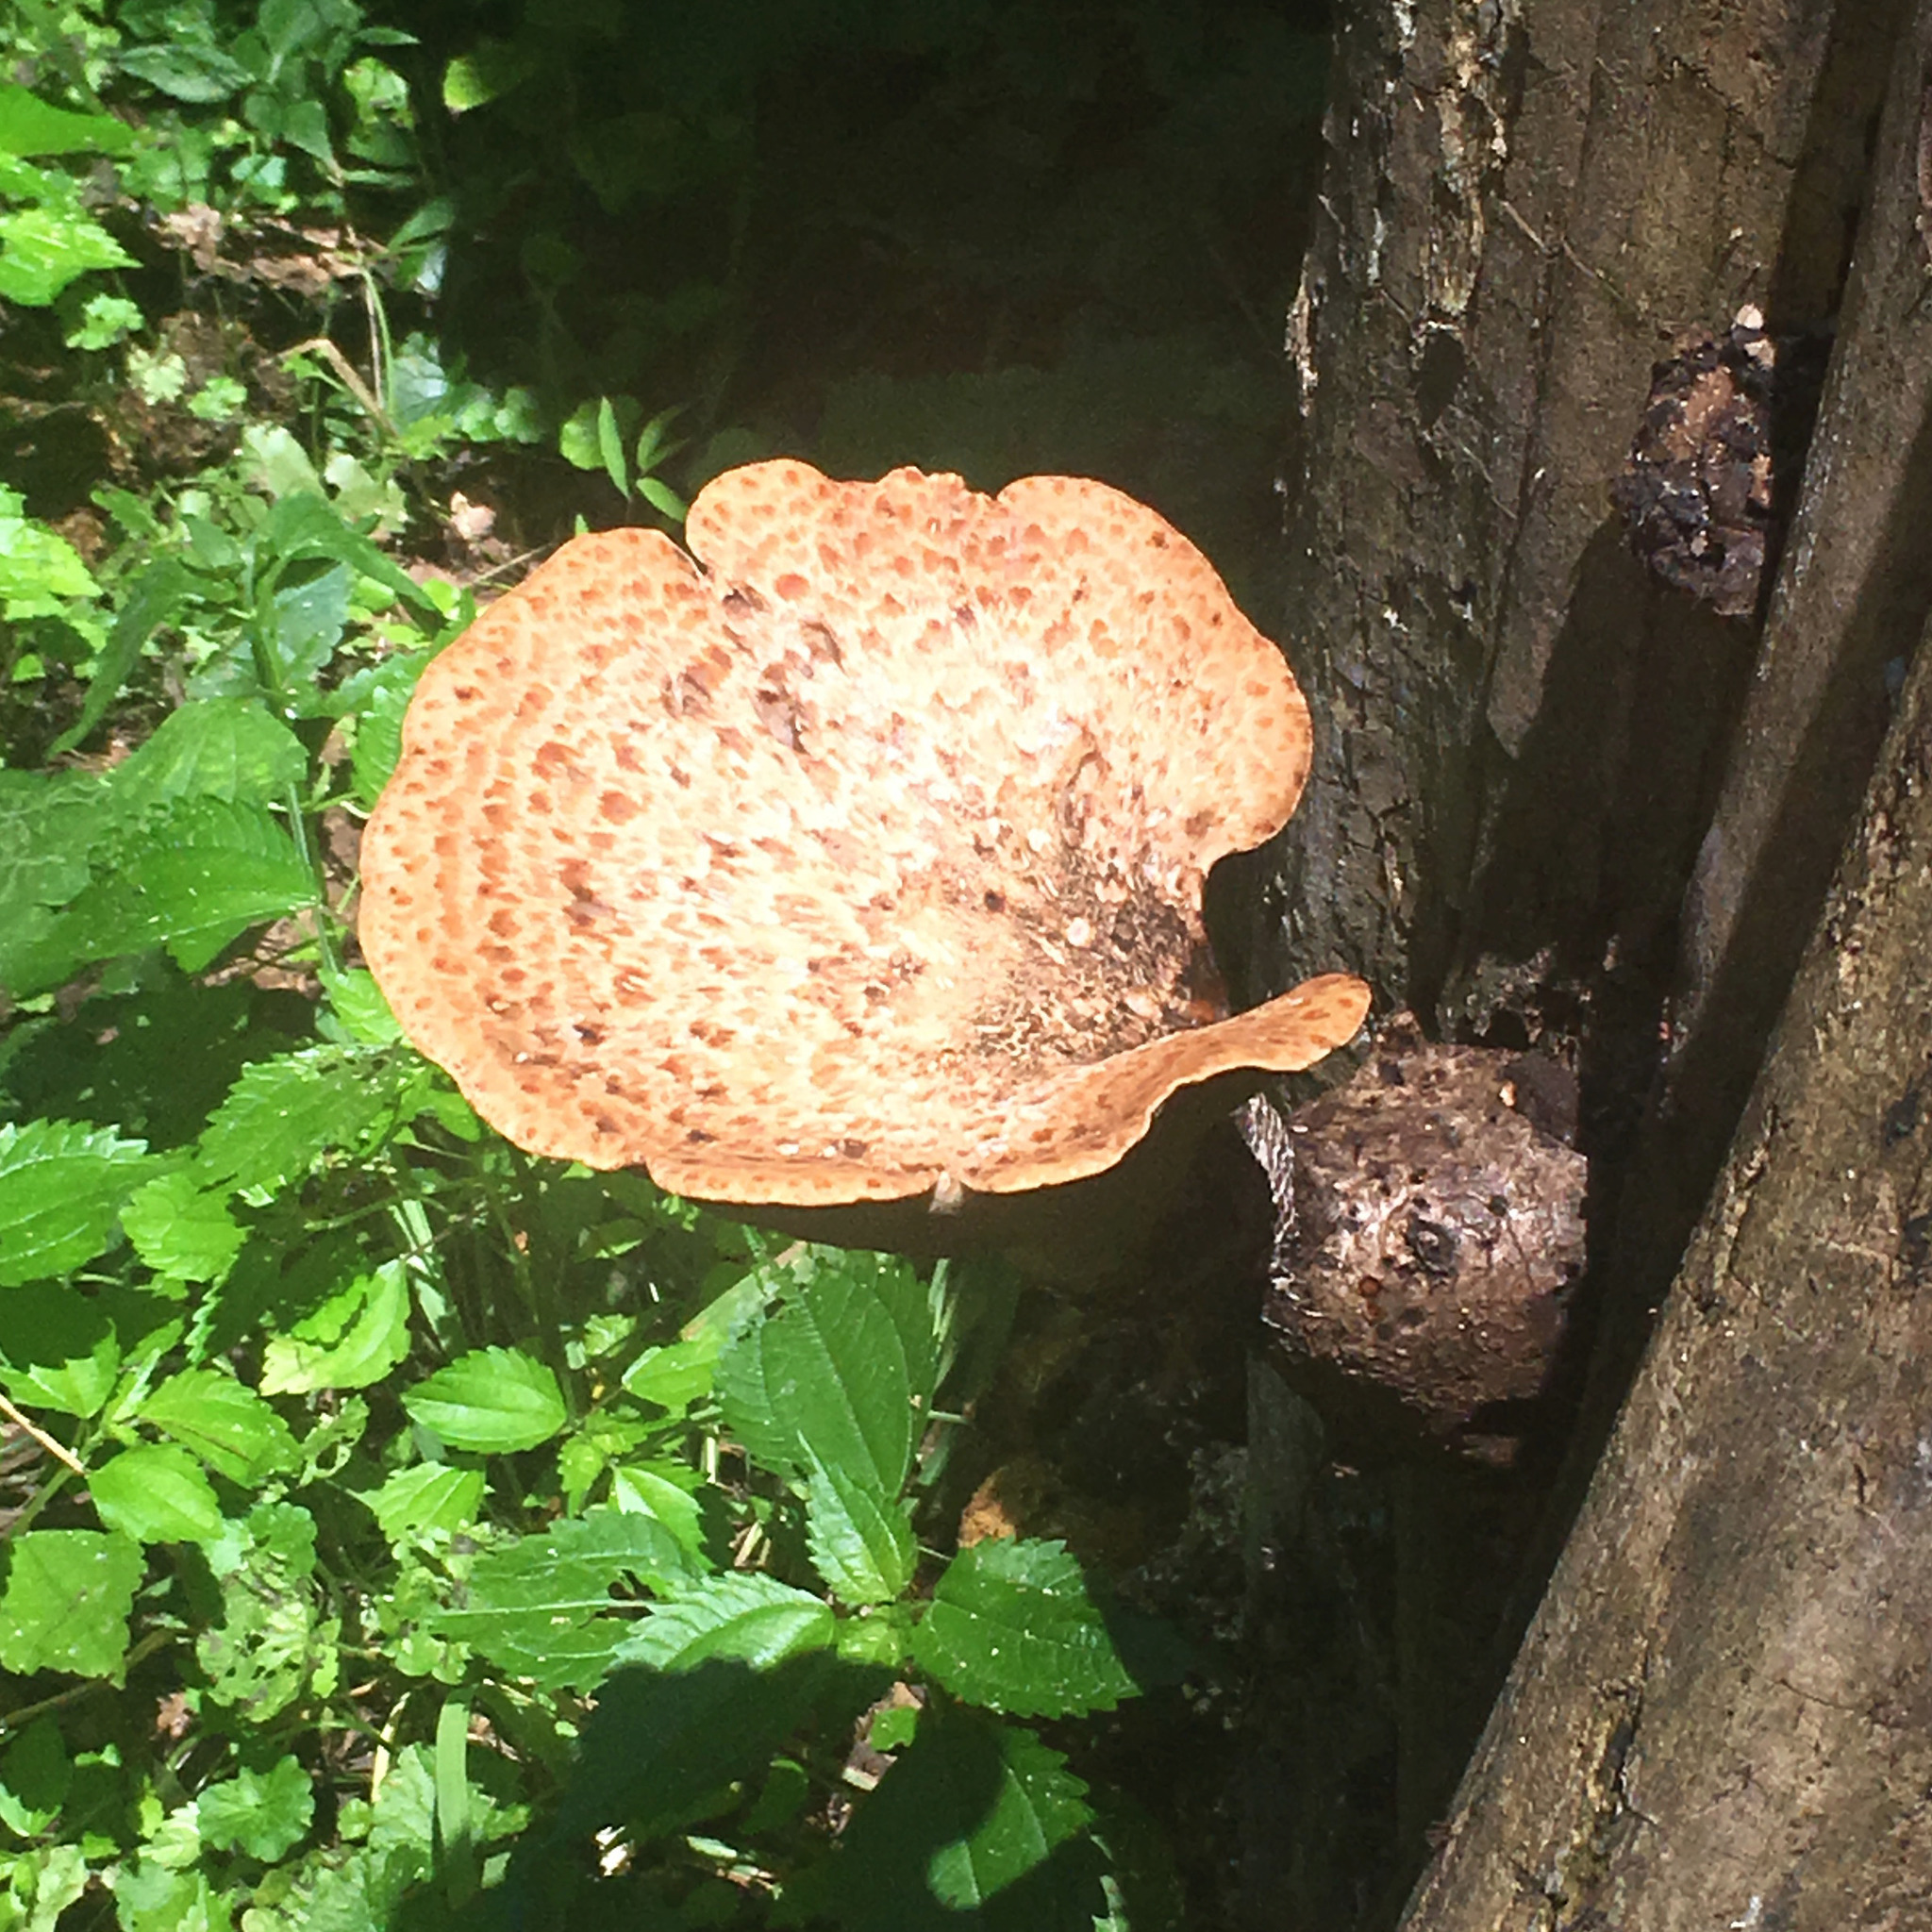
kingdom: Fungi
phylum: Basidiomycota
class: Agaricomycetes
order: Polyporales
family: Polyporaceae
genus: Cerioporus
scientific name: Cerioporus squamosus
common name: Dryad's saddle
